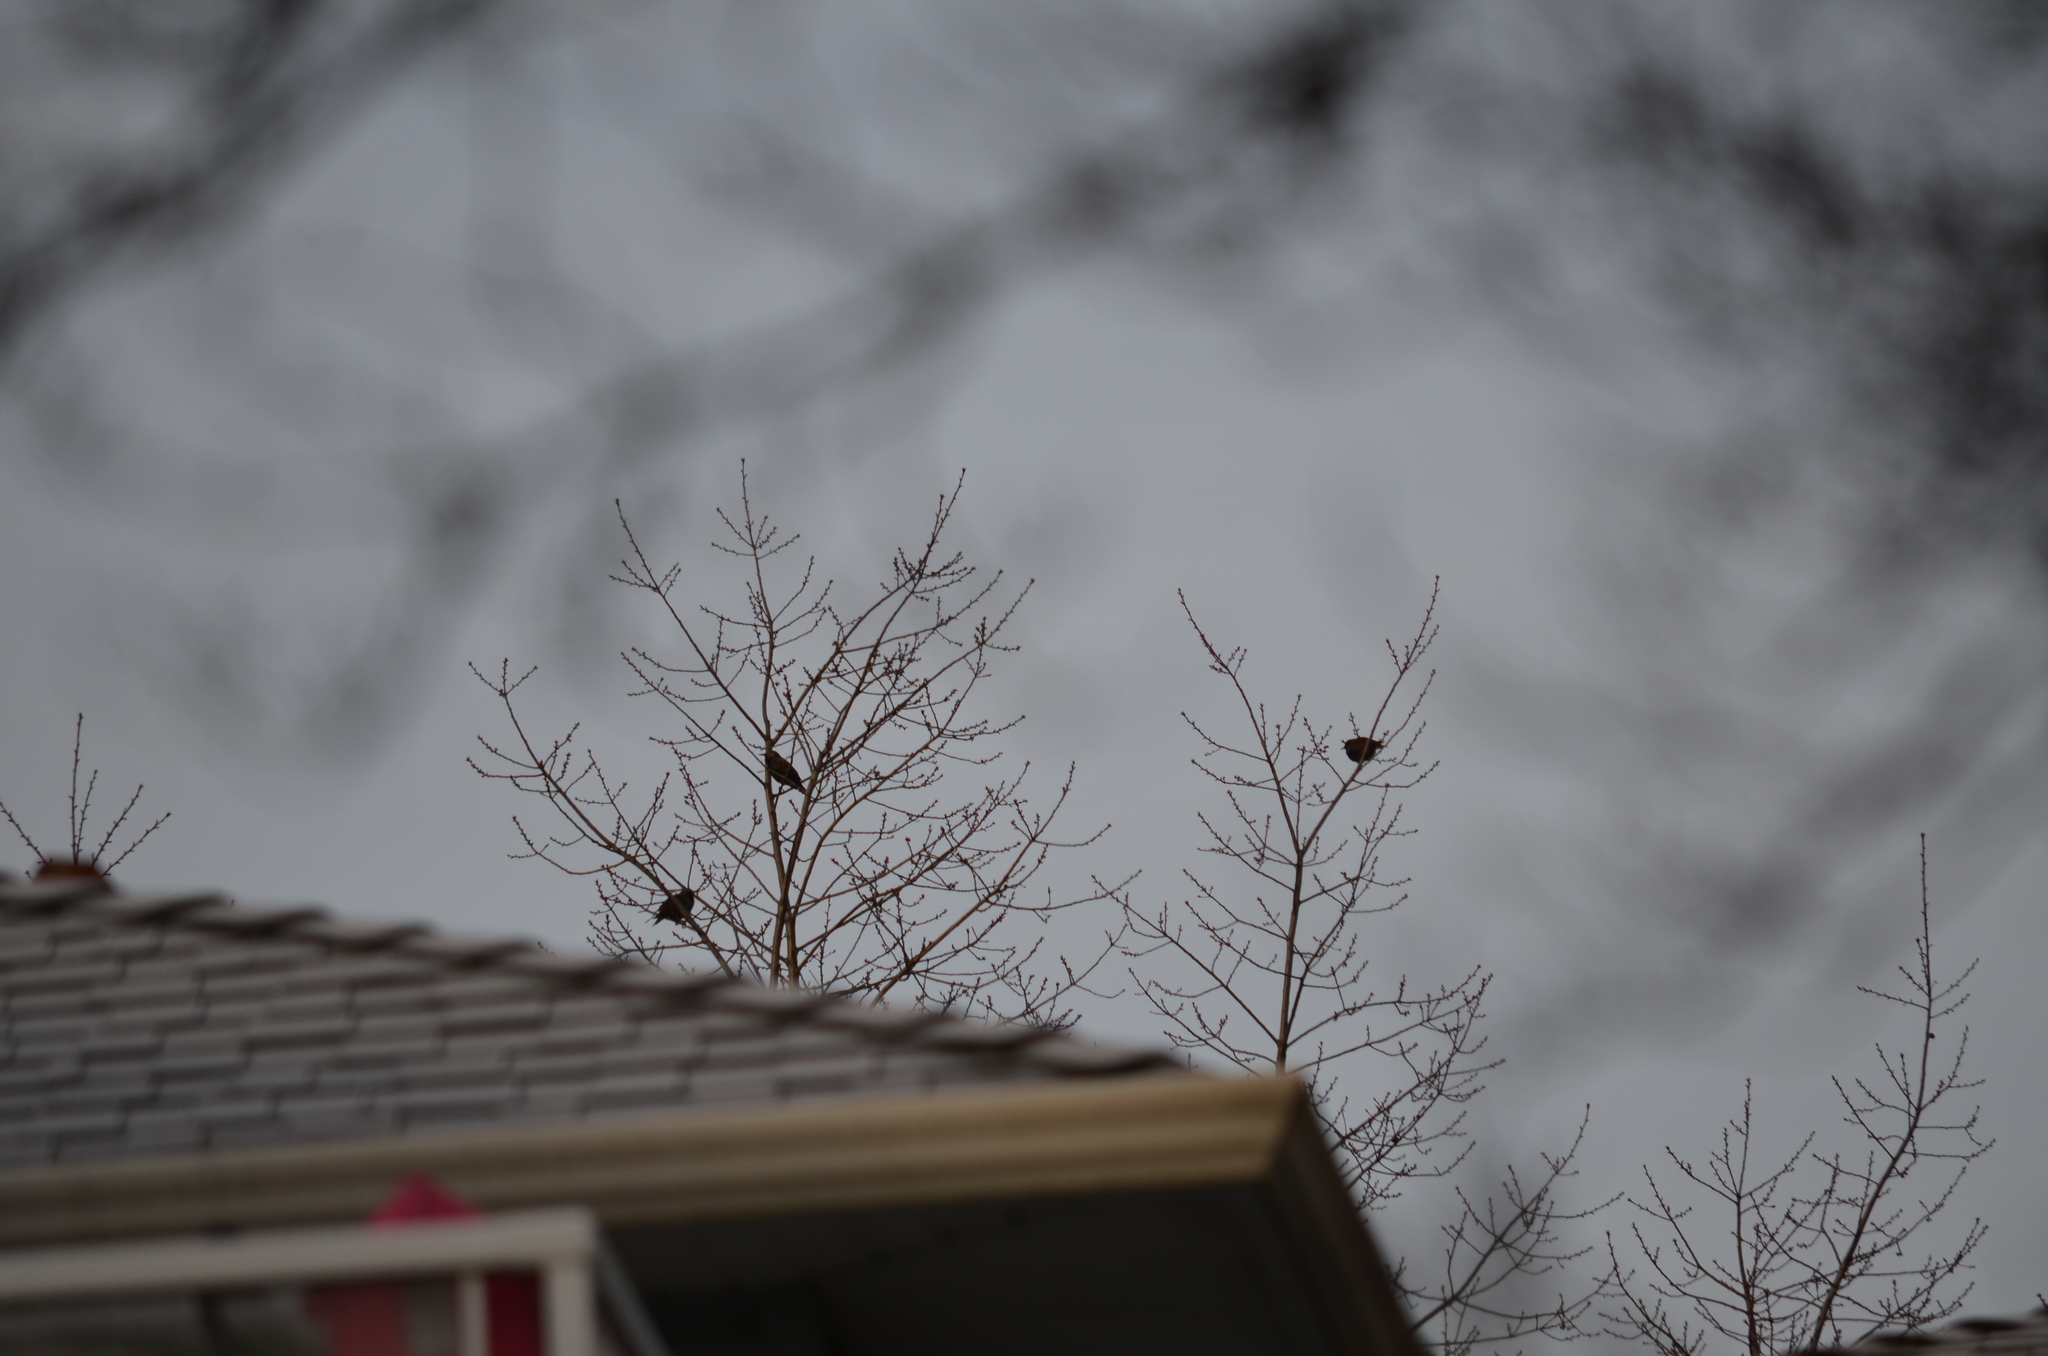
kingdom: Animalia
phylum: Chordata
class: Aves
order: Passeriformes
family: Sturnidae
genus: Sturnus
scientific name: Sturnus vulgaris
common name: Common starling
